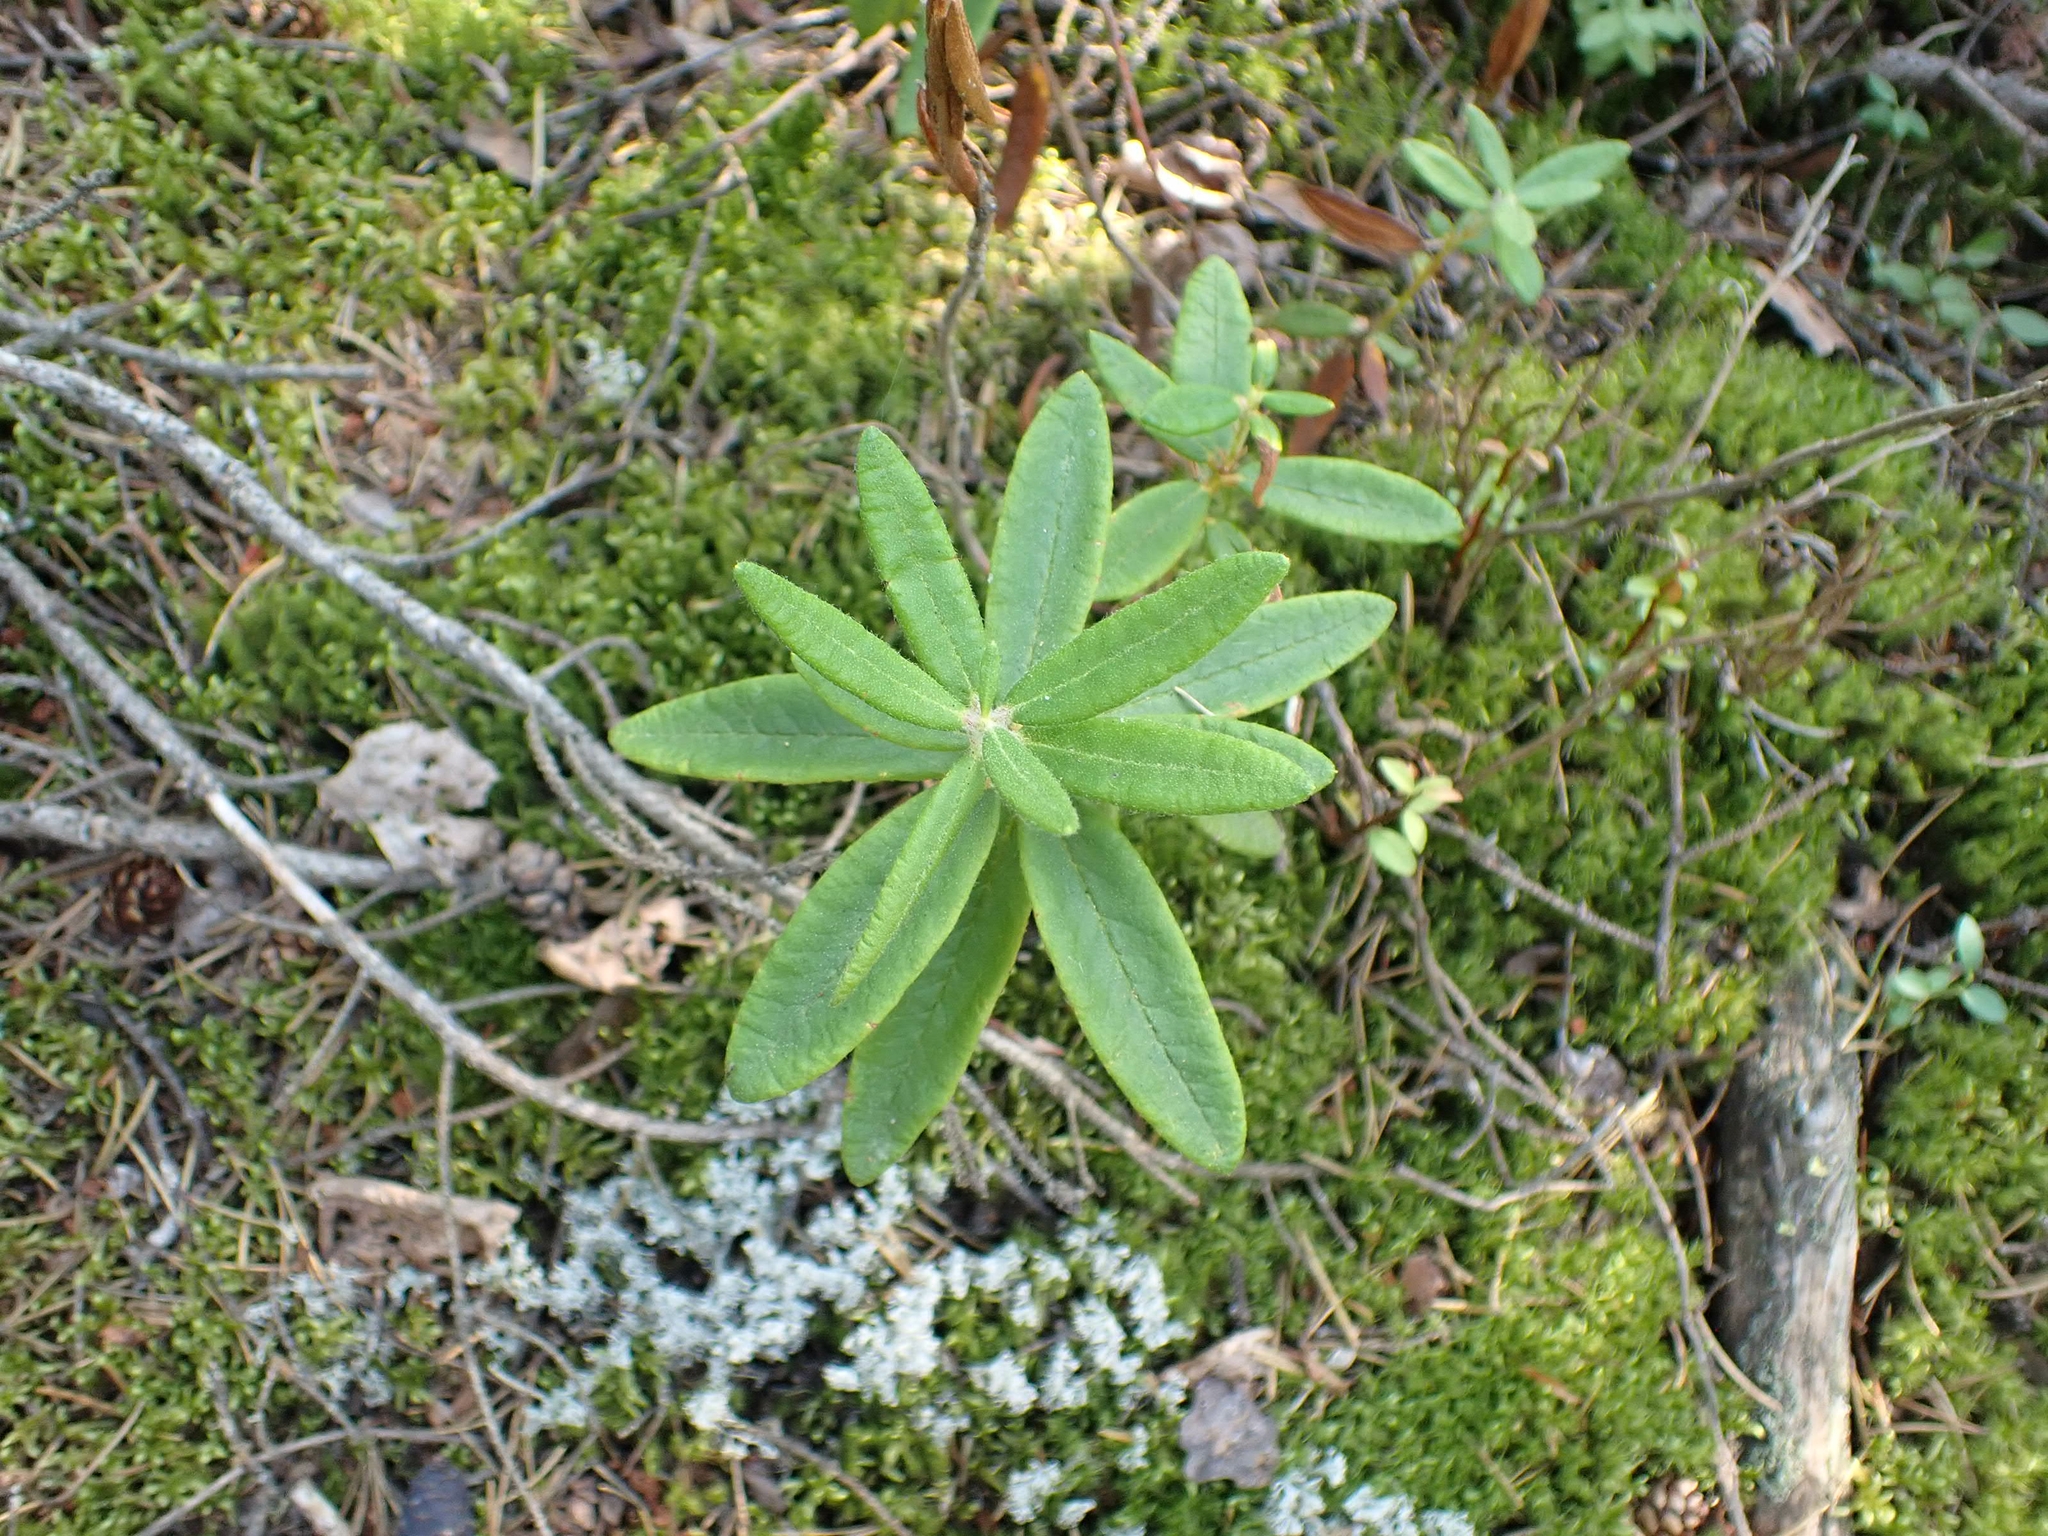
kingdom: Plantae
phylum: Tracheophyta
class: Magnoliopsida
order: Ericales
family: Ericaceae
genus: Rhododendron
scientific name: Rhododendron groenlandicum
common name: Bog labrador tea
